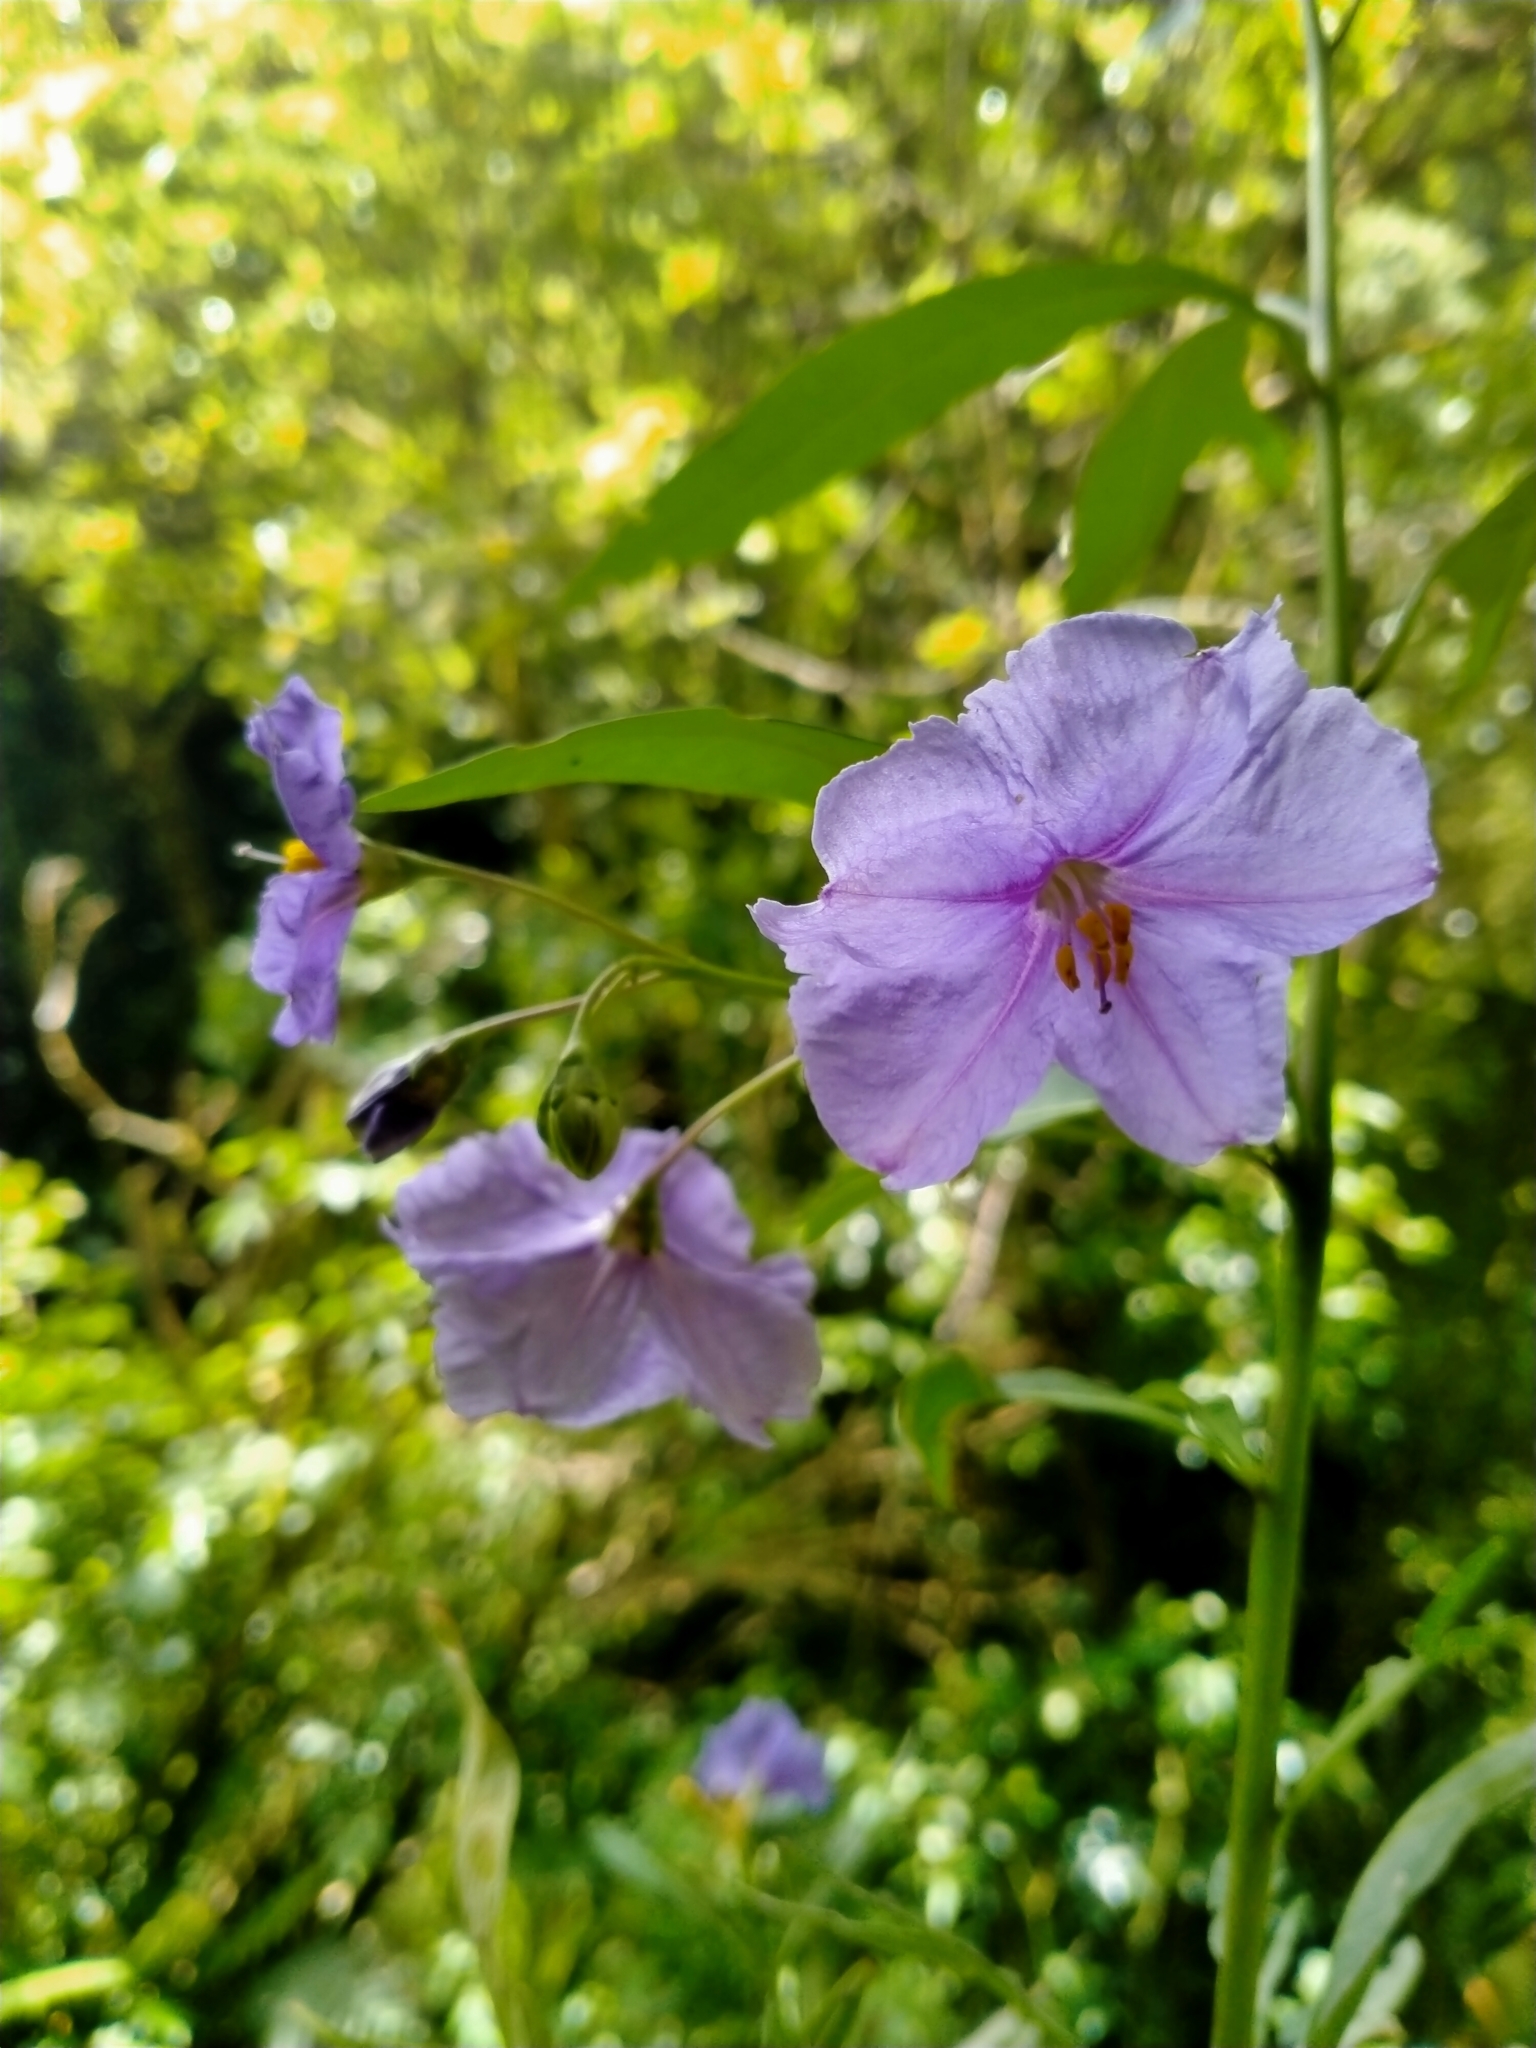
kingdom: Plantae
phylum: Tracheophyta
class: Magnoliopsida
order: Solanales
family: Solanaceae
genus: Solanum
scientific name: Solanum laciniatum
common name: Kangaroo-apple
